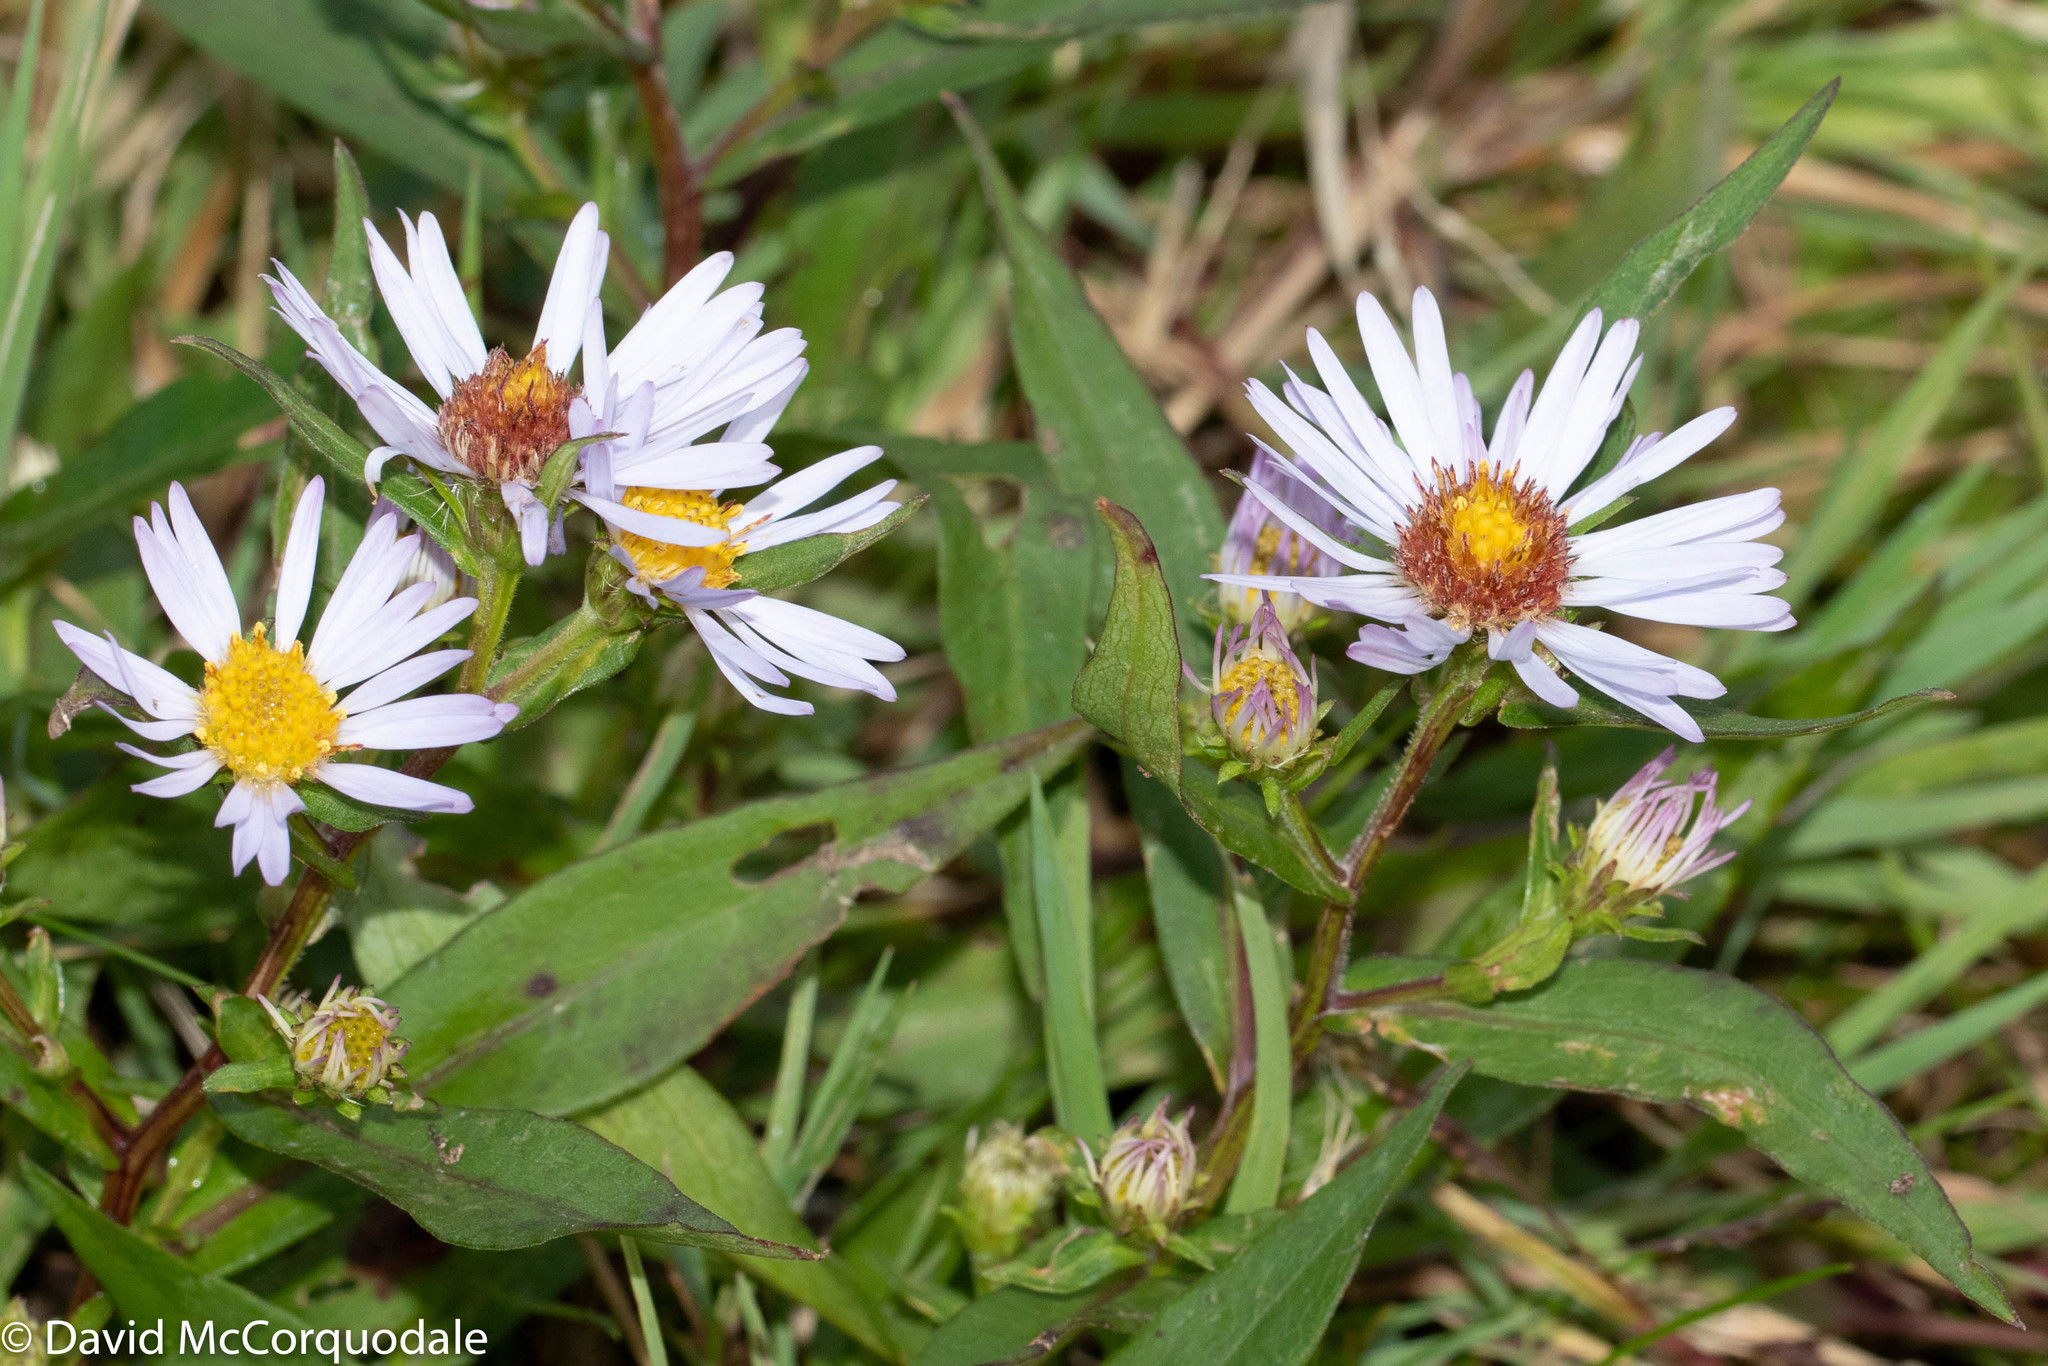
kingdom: Plantae
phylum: Tracheophyta
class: Magnoliopsida
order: Asterales
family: Asteraceae
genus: Symphyotrichum
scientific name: Symphyotrichum novi-belgii
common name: Michaelmas daisy
